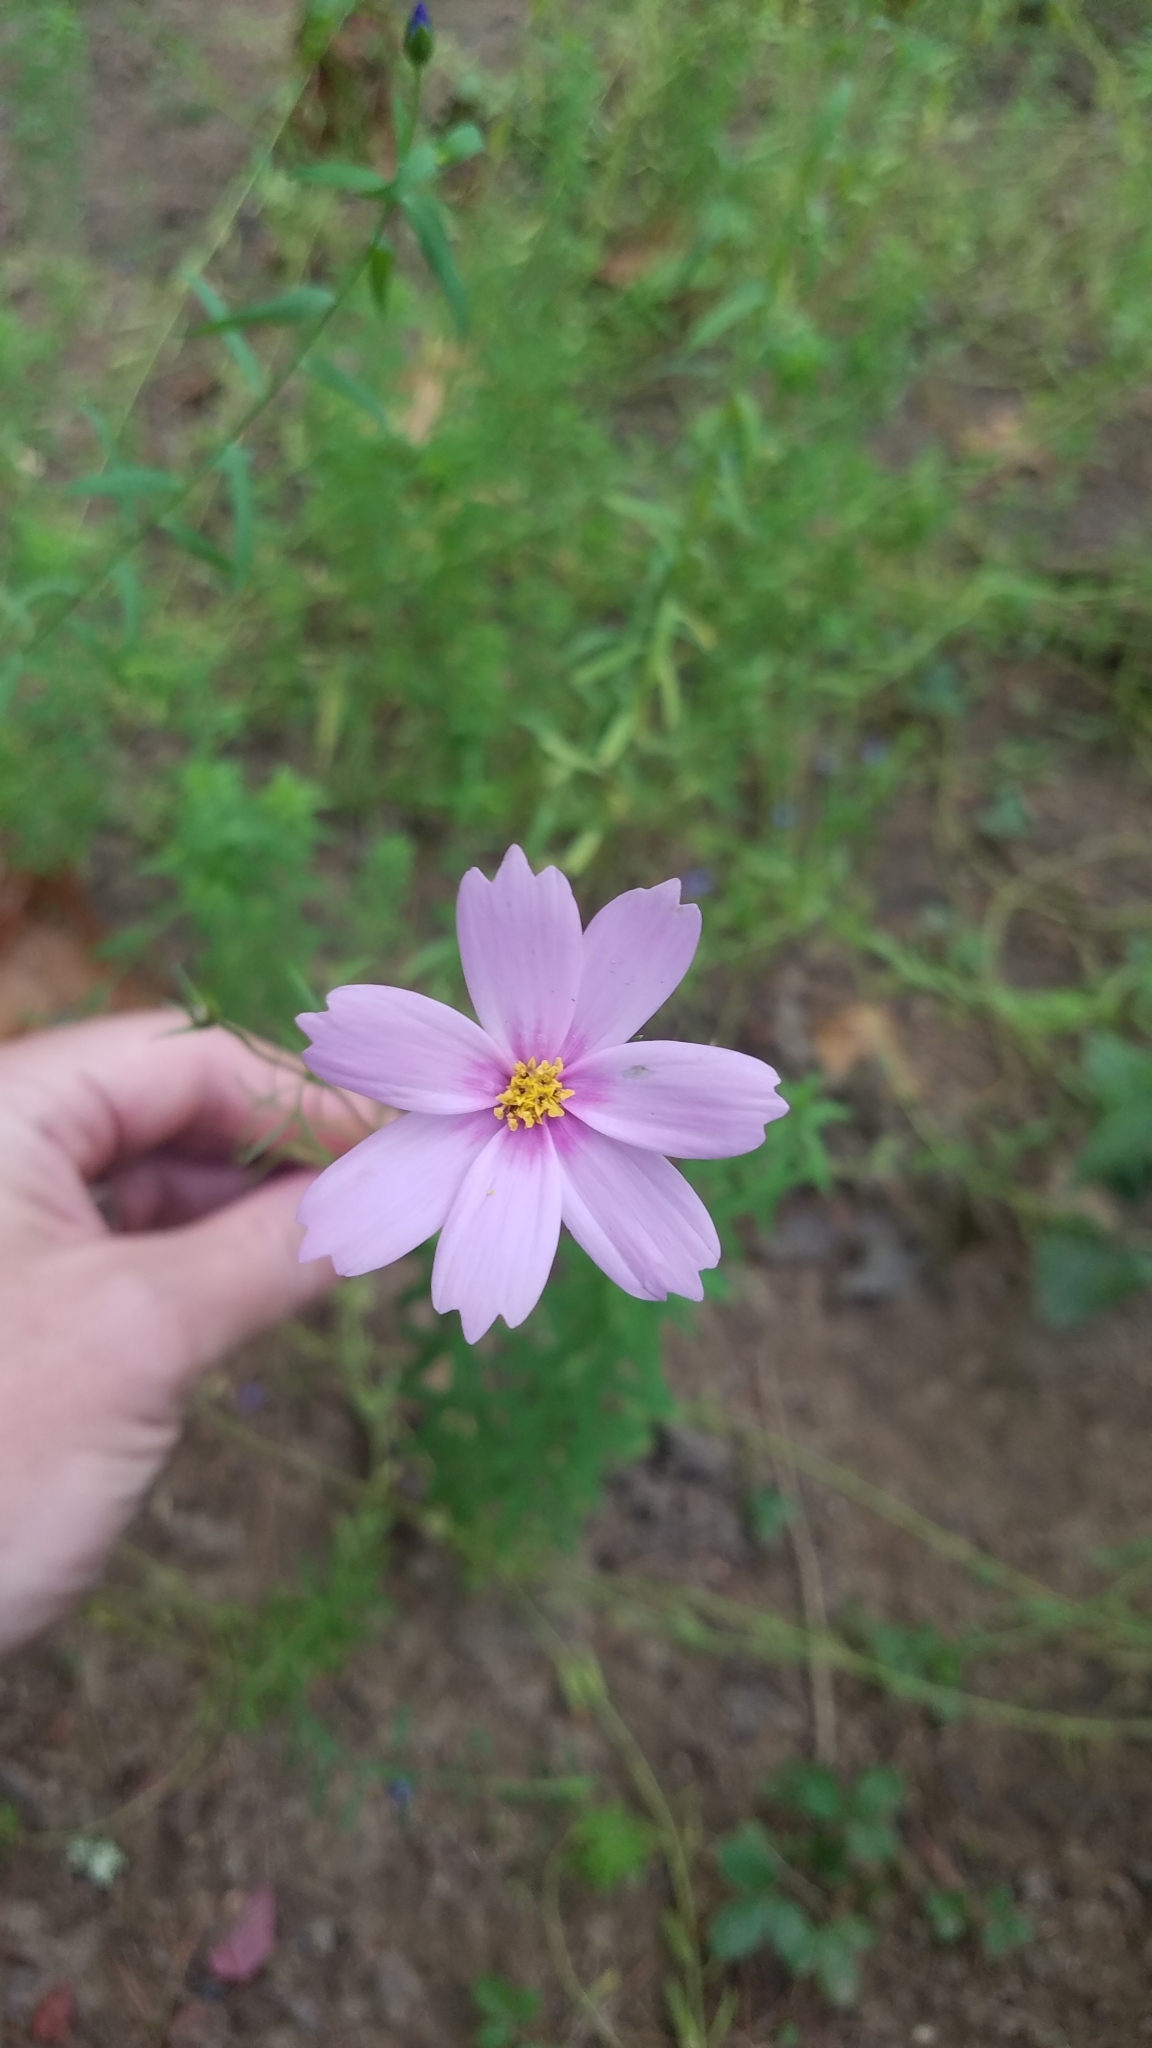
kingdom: Plantae
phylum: Tracheophyta
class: Magnoliopsida
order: Asterales
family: Asteraceae
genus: Cosmos
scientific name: Cosmos bipinnatus
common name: Garden cosmos
